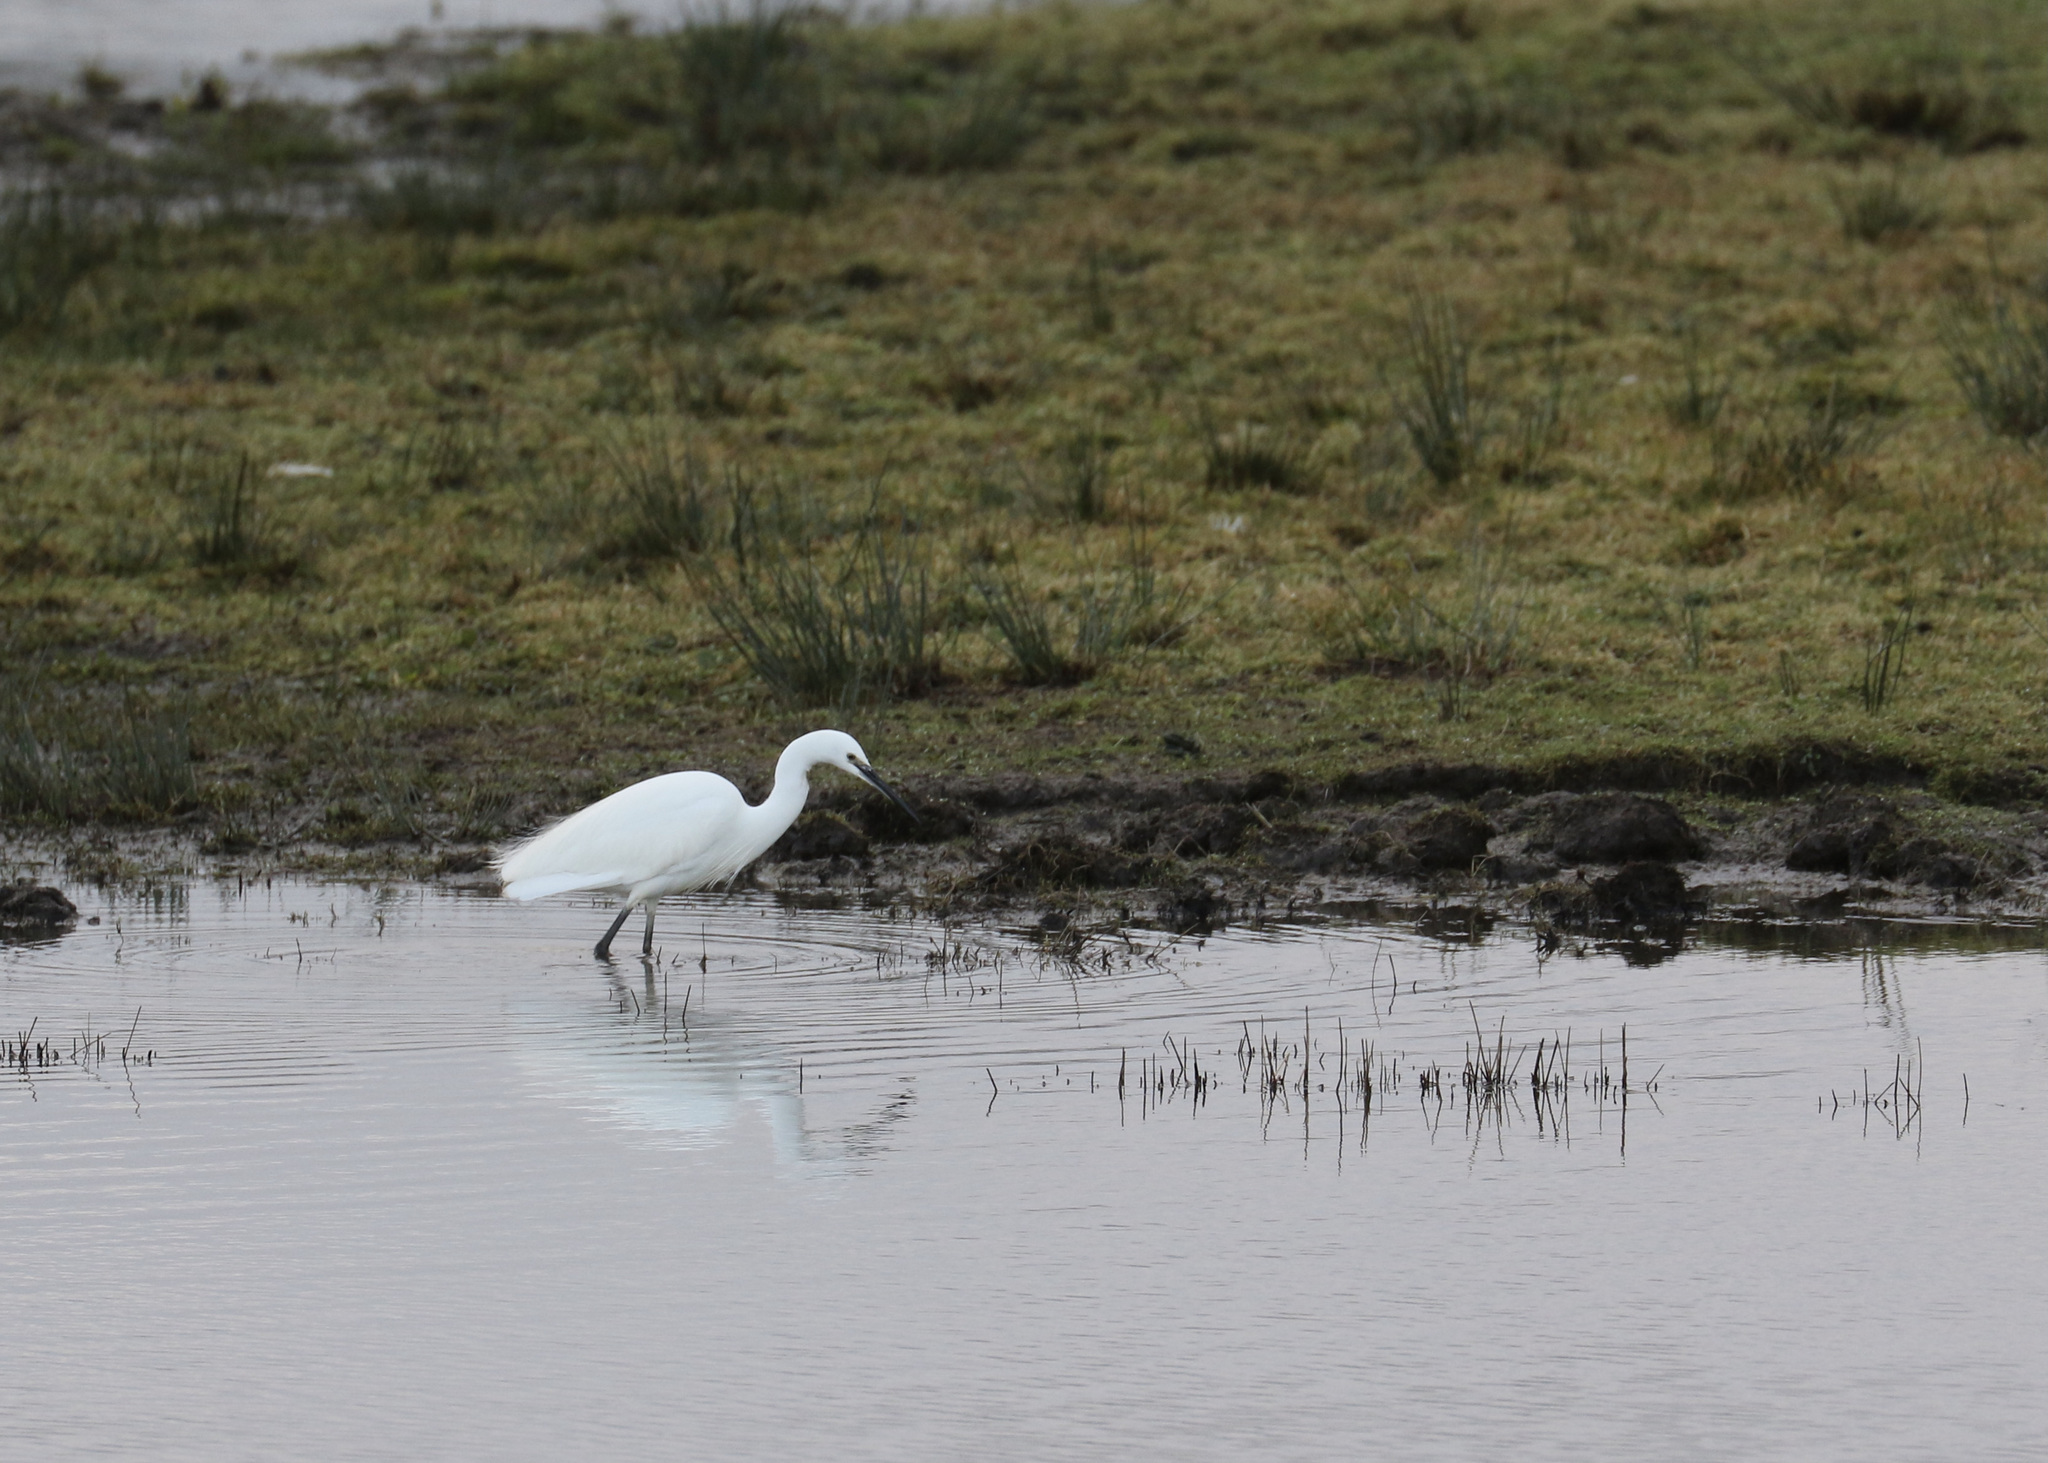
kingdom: Animalia
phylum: Chordata
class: Aves
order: Pelecaniformes
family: Ardeidae
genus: Egretta
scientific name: Egretta garzetta
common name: Little egret
